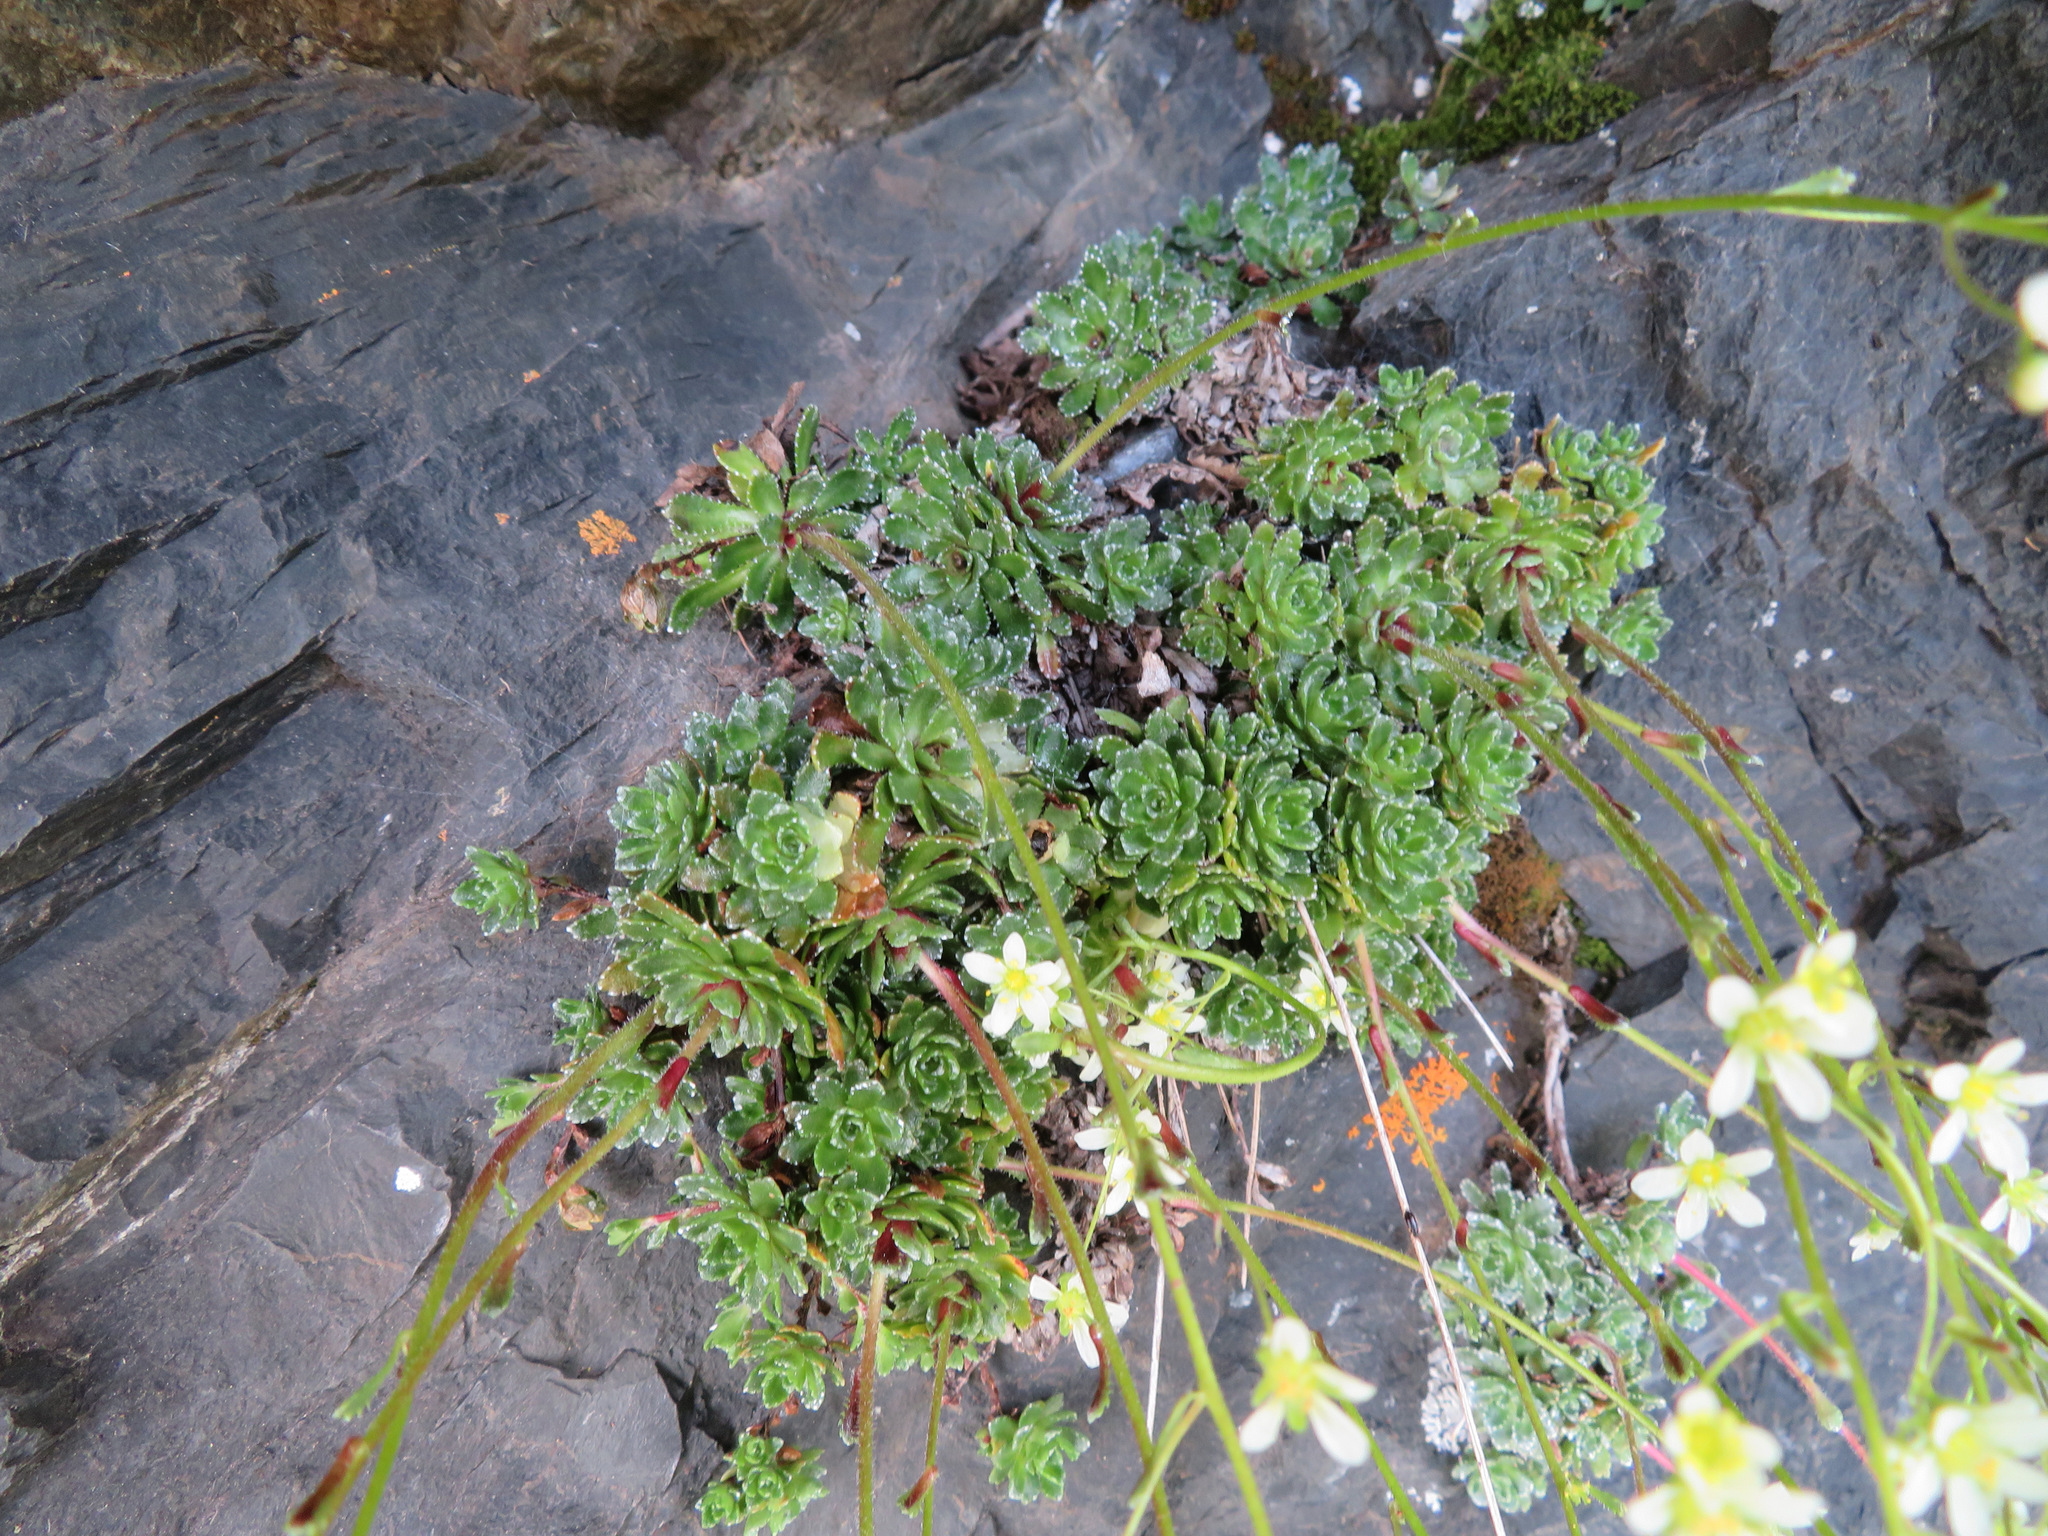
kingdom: Plantae
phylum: Tracheophyta
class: Magnoliopsida
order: Saxifragales
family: Saxifragaceae
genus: Saxifraga
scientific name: Saxifraga paniculata
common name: Livelong saxifrage
